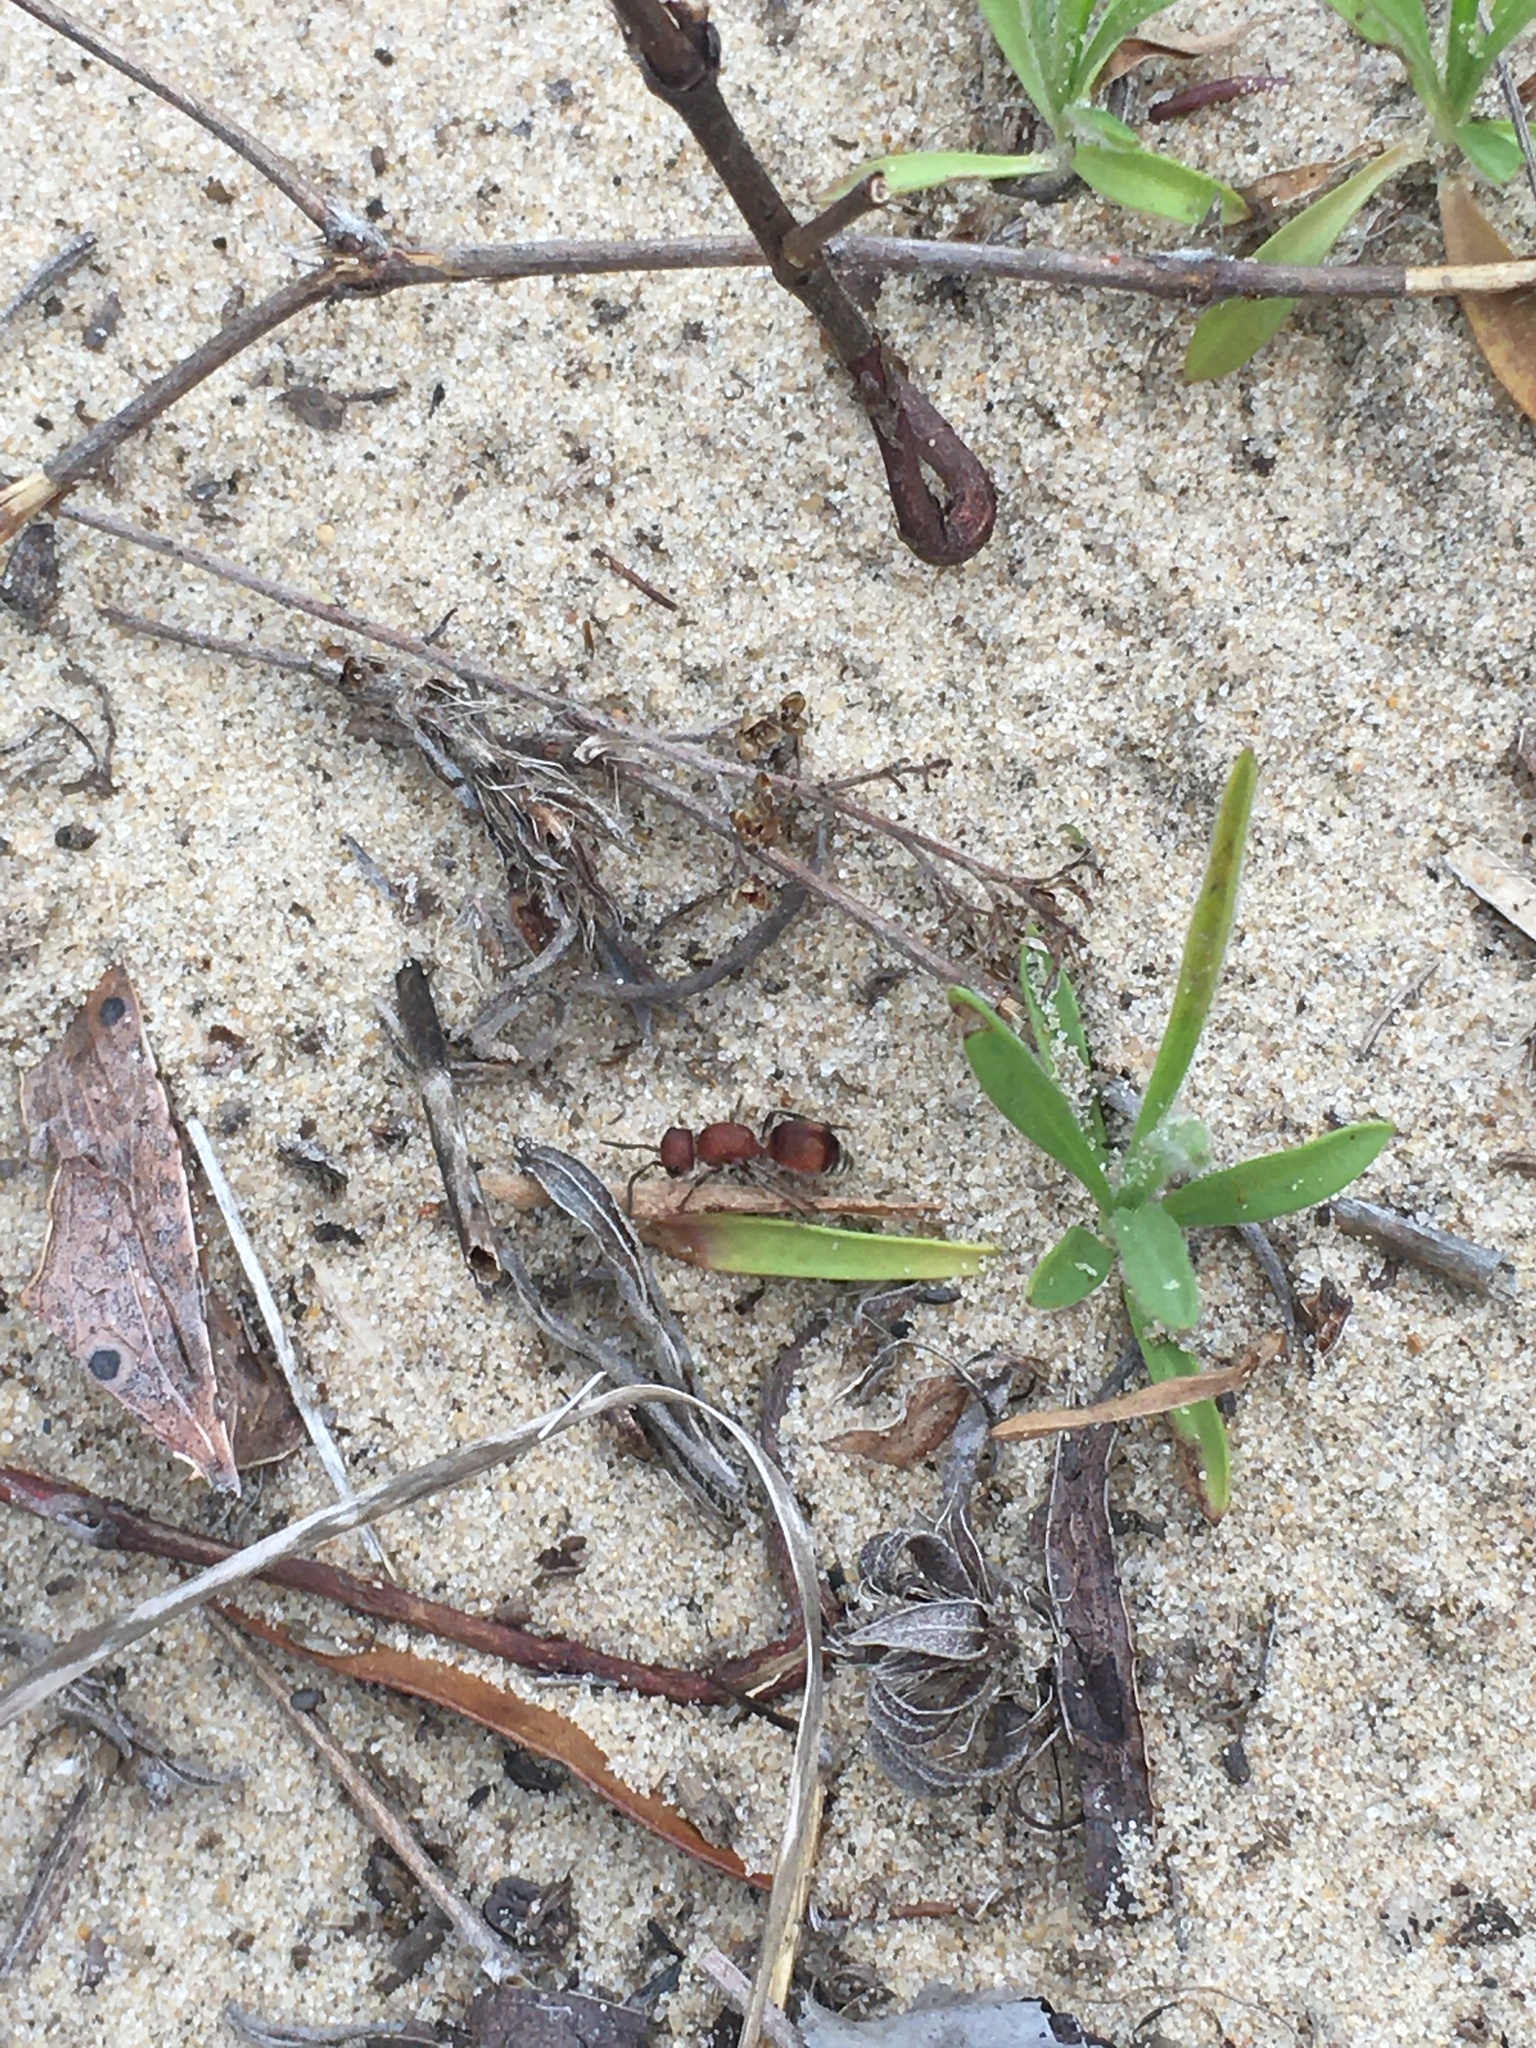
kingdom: Animalia
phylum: Arthropoda
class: Insecta
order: Hymenoptera
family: Mutillidae
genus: Pseudomethoca
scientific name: Pseudomethoca
